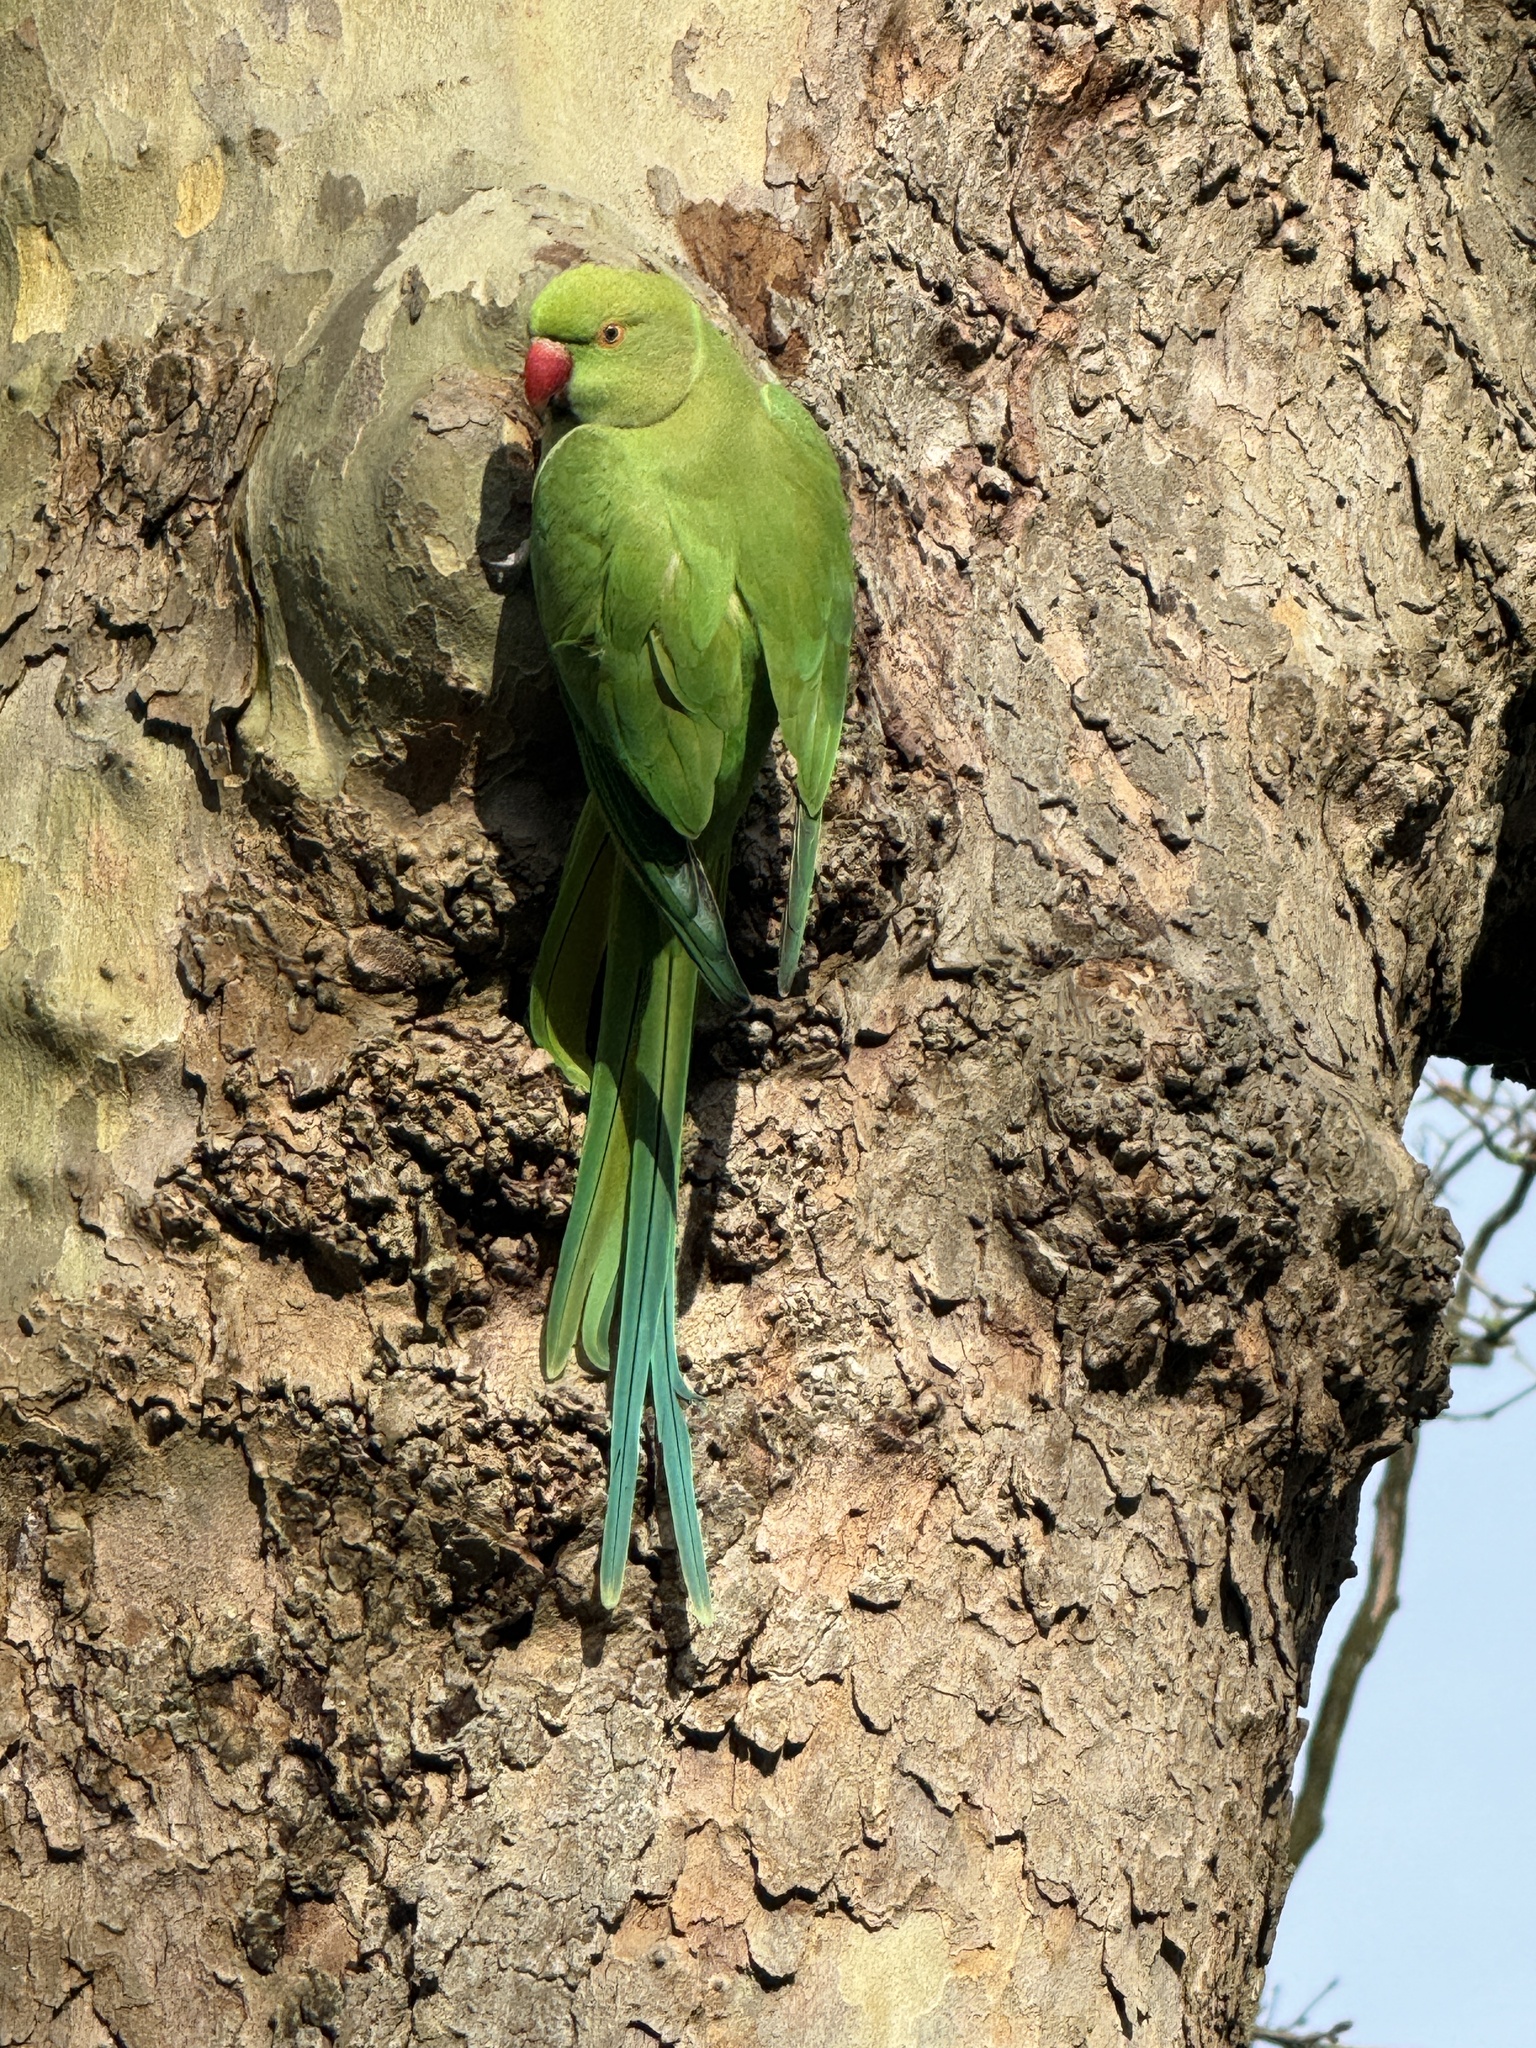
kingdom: Animalia
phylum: Chordata
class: Aves
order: Psittaciformes
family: Psittacidae
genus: Psittacula
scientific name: Psittacula krameri
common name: Rose-ringed parakeet
